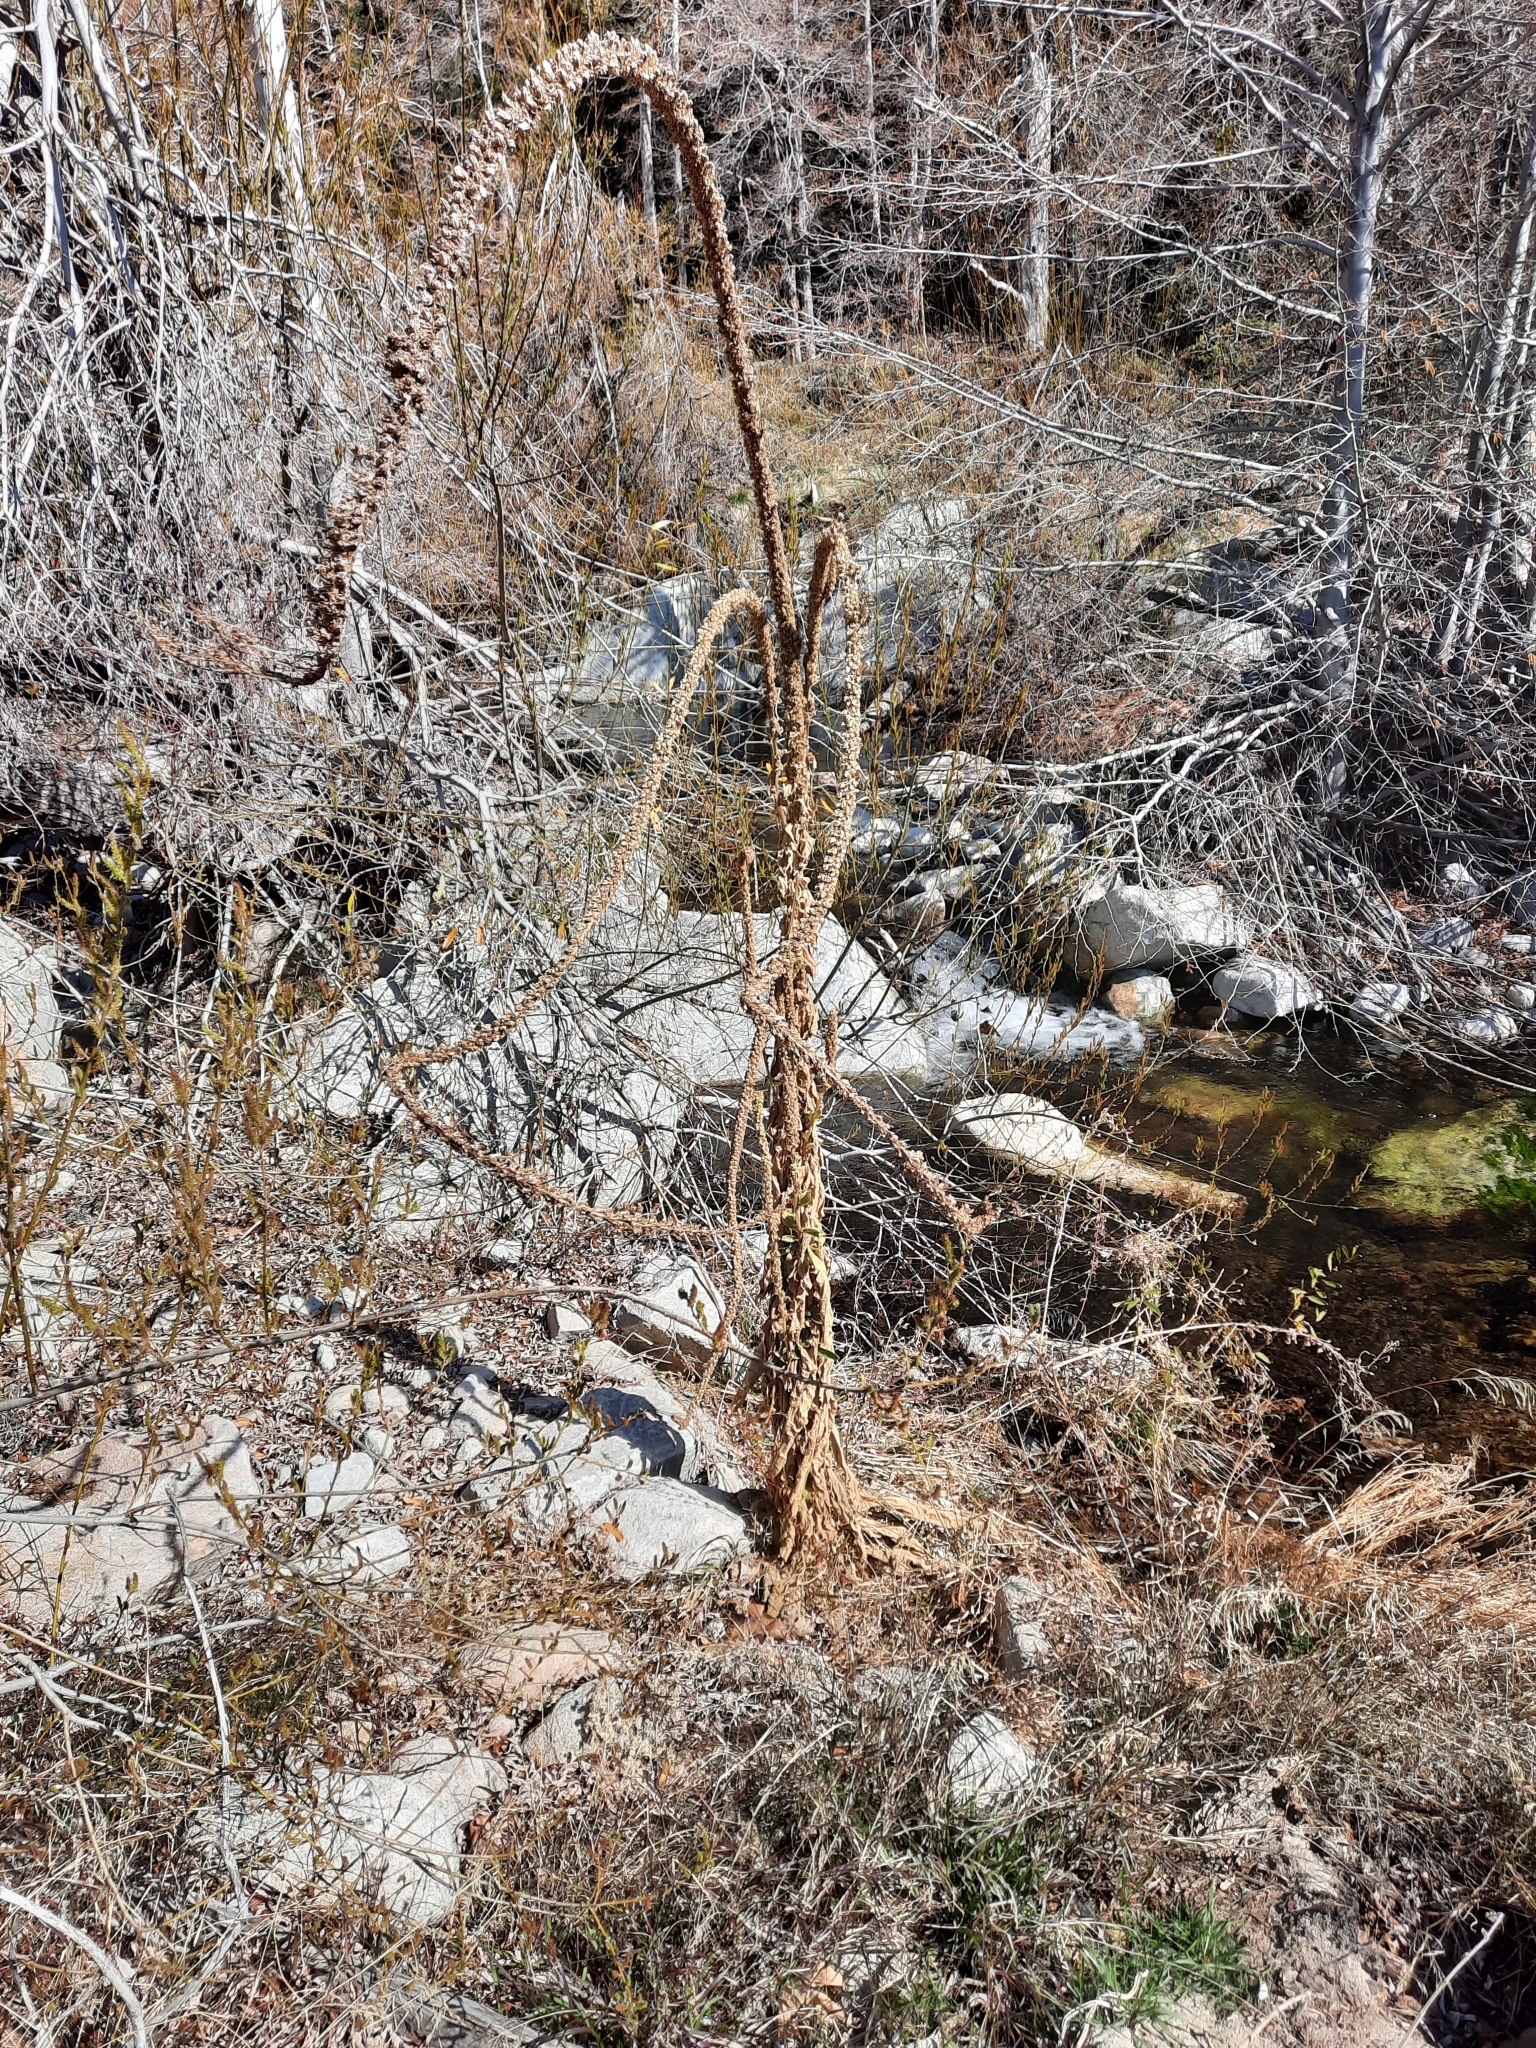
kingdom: Plantae
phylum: Tracheophyta
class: Magnoliopsida
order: Lamiales
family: Scrophulariaceae
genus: Verbascum
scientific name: Verbascum thapsus
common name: Common mullein
